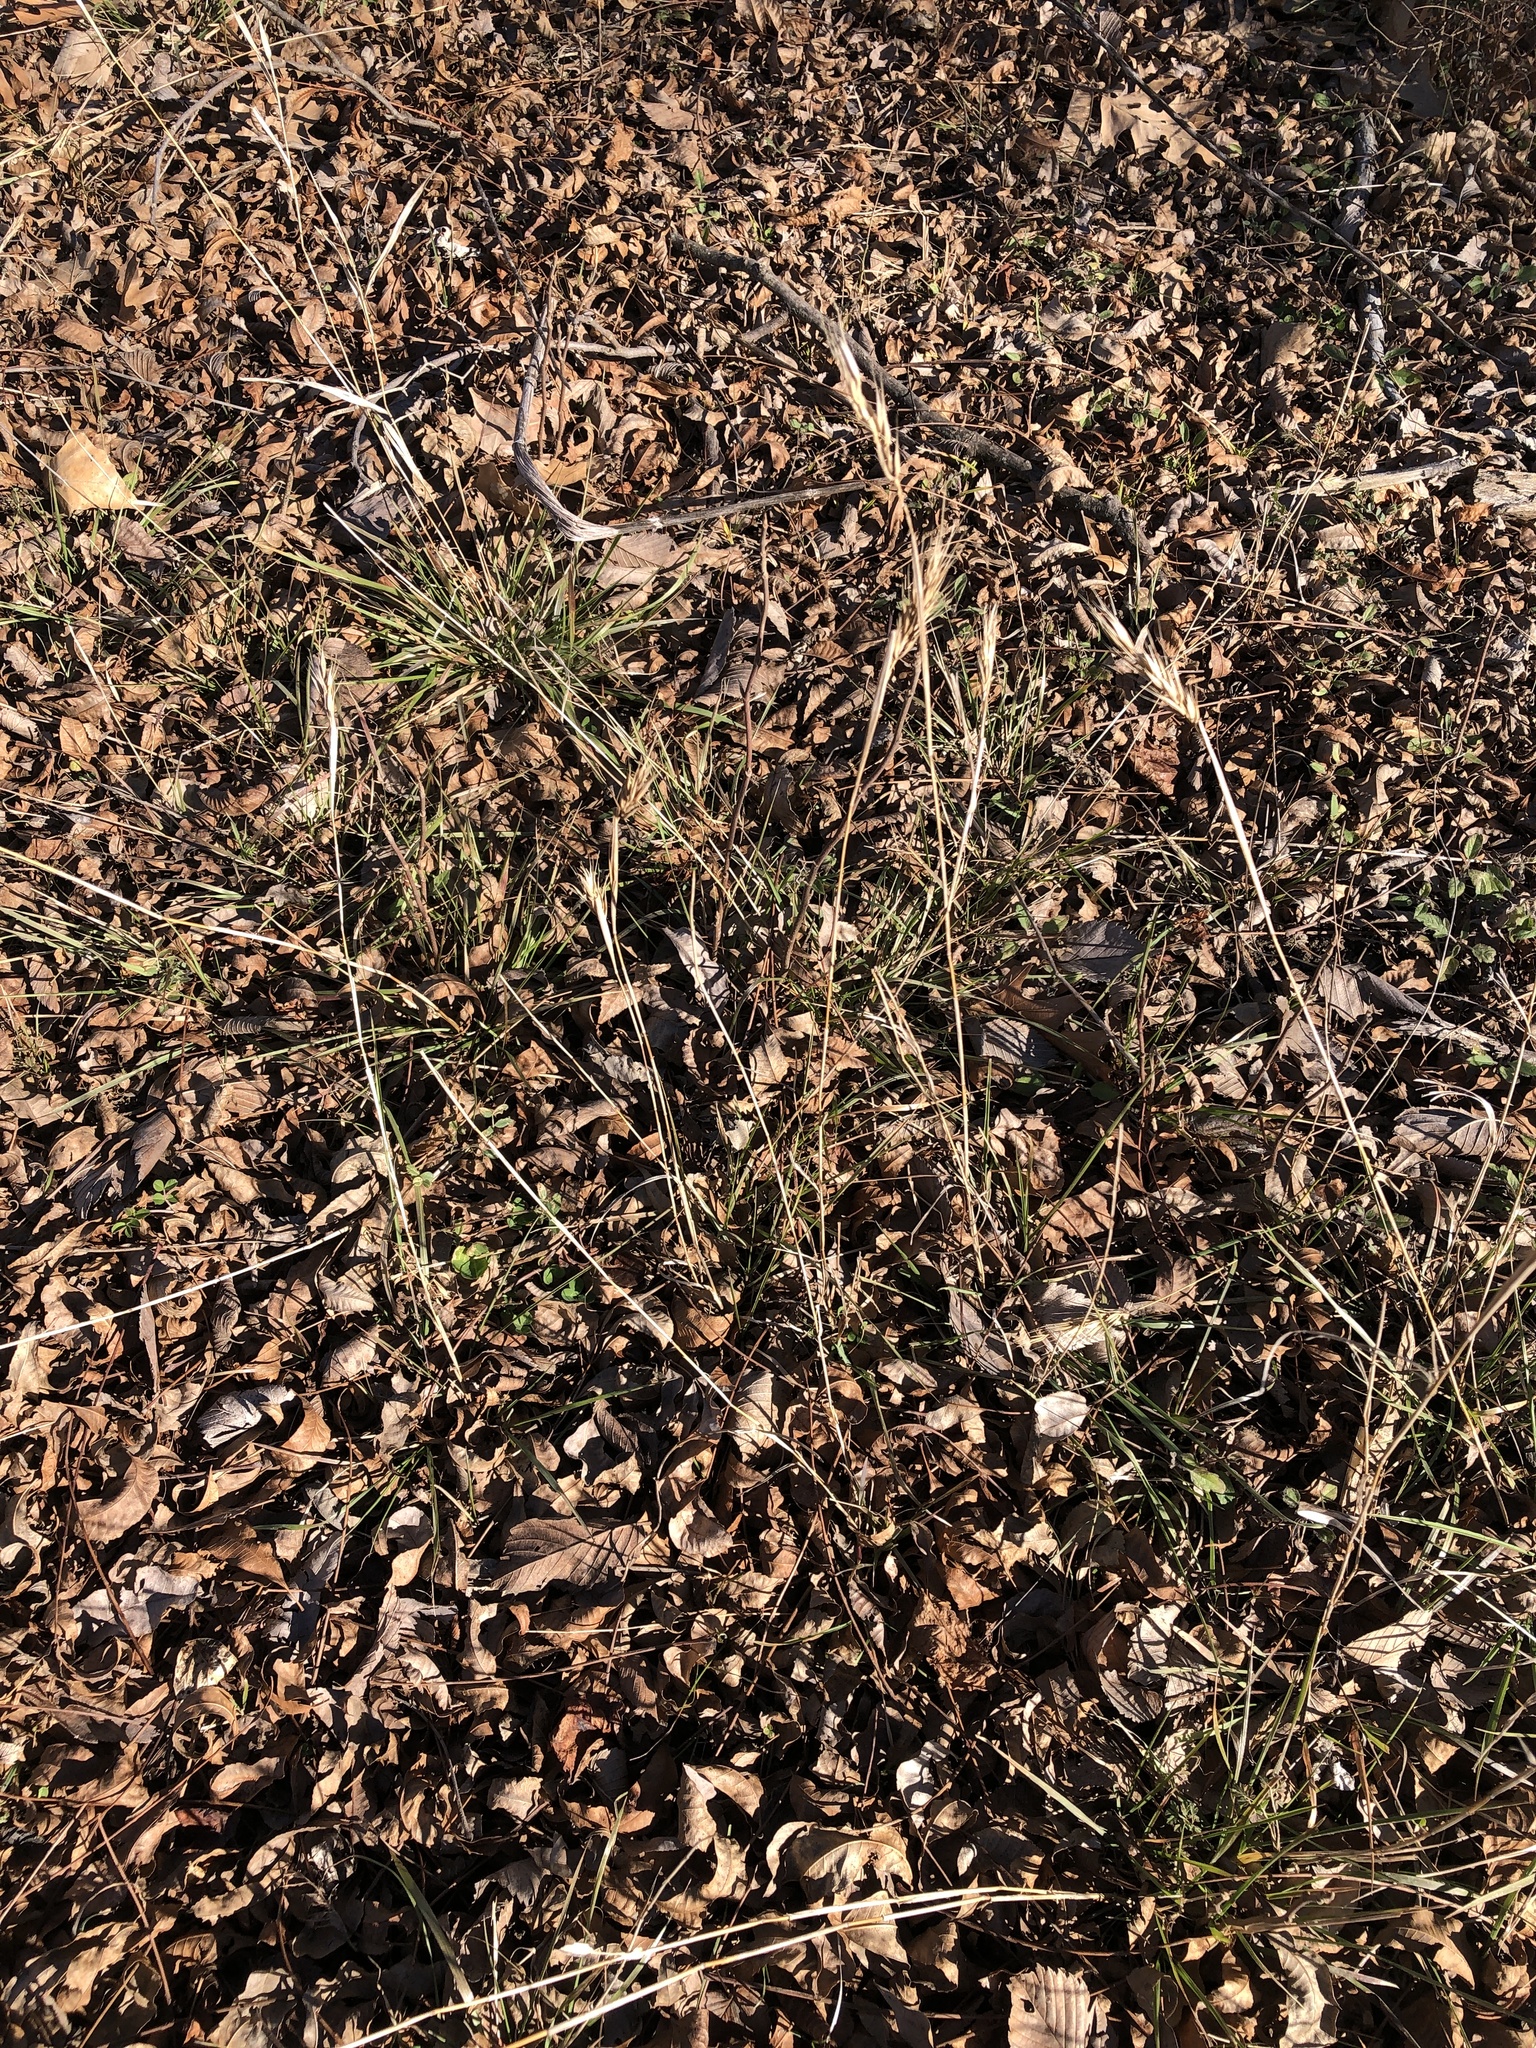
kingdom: Plantae
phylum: Tracheophyta
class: Liliopsida
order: Poales
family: Poaceae
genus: Elymus
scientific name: Elymus virginicus
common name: Common eastern wildrye
